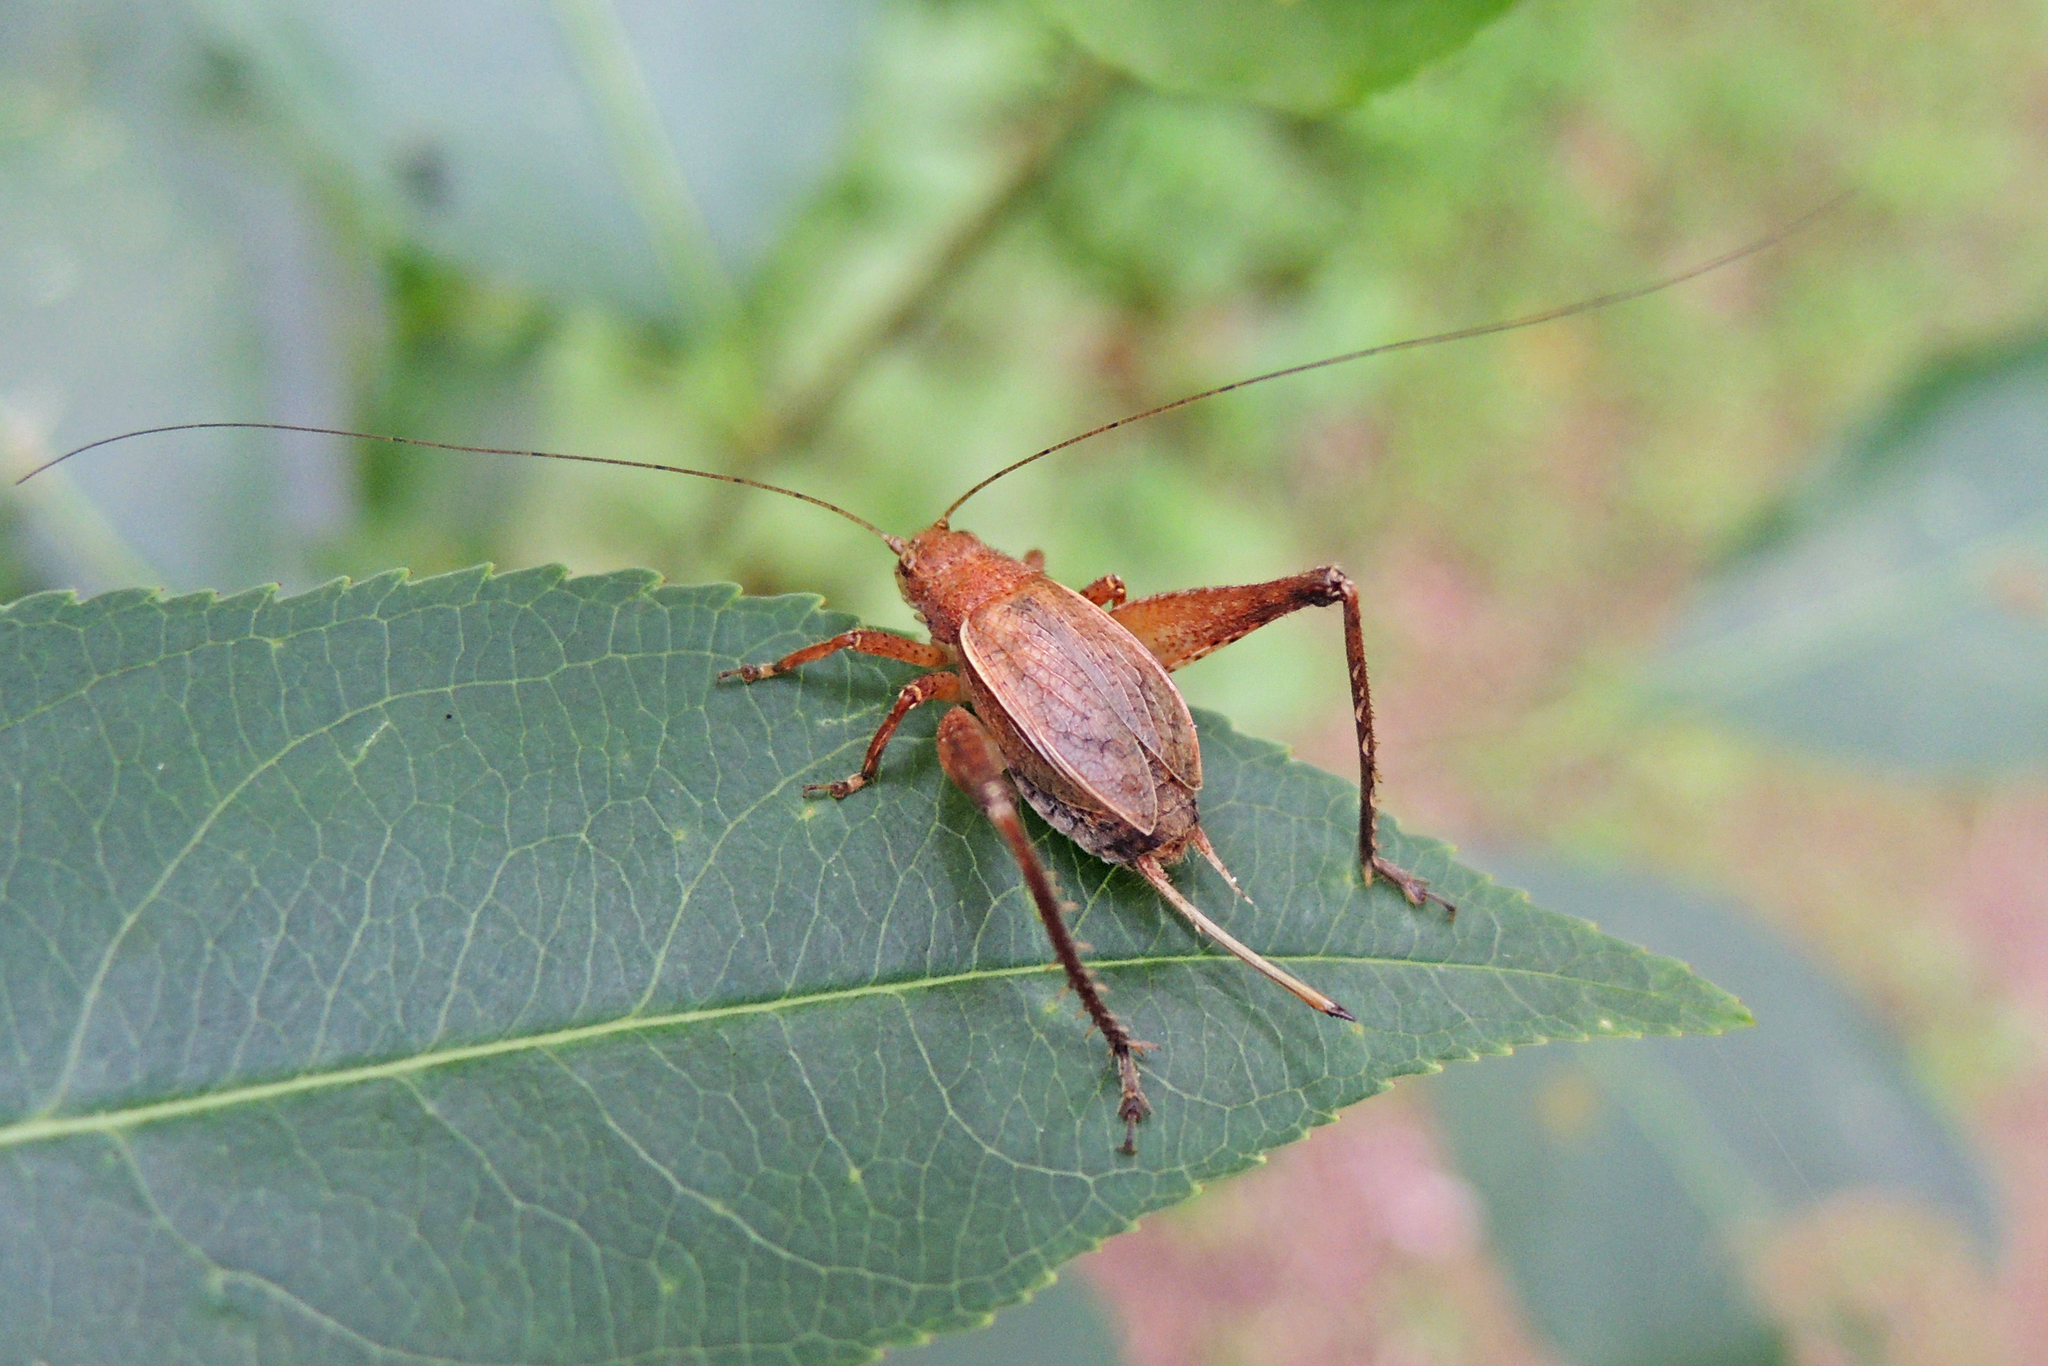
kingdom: Animalia
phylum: Arthropoda
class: Insecta
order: Orthoptera
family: Gryllidae
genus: Hapithus
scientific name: Hapithus agitator
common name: Restless bush cricket
